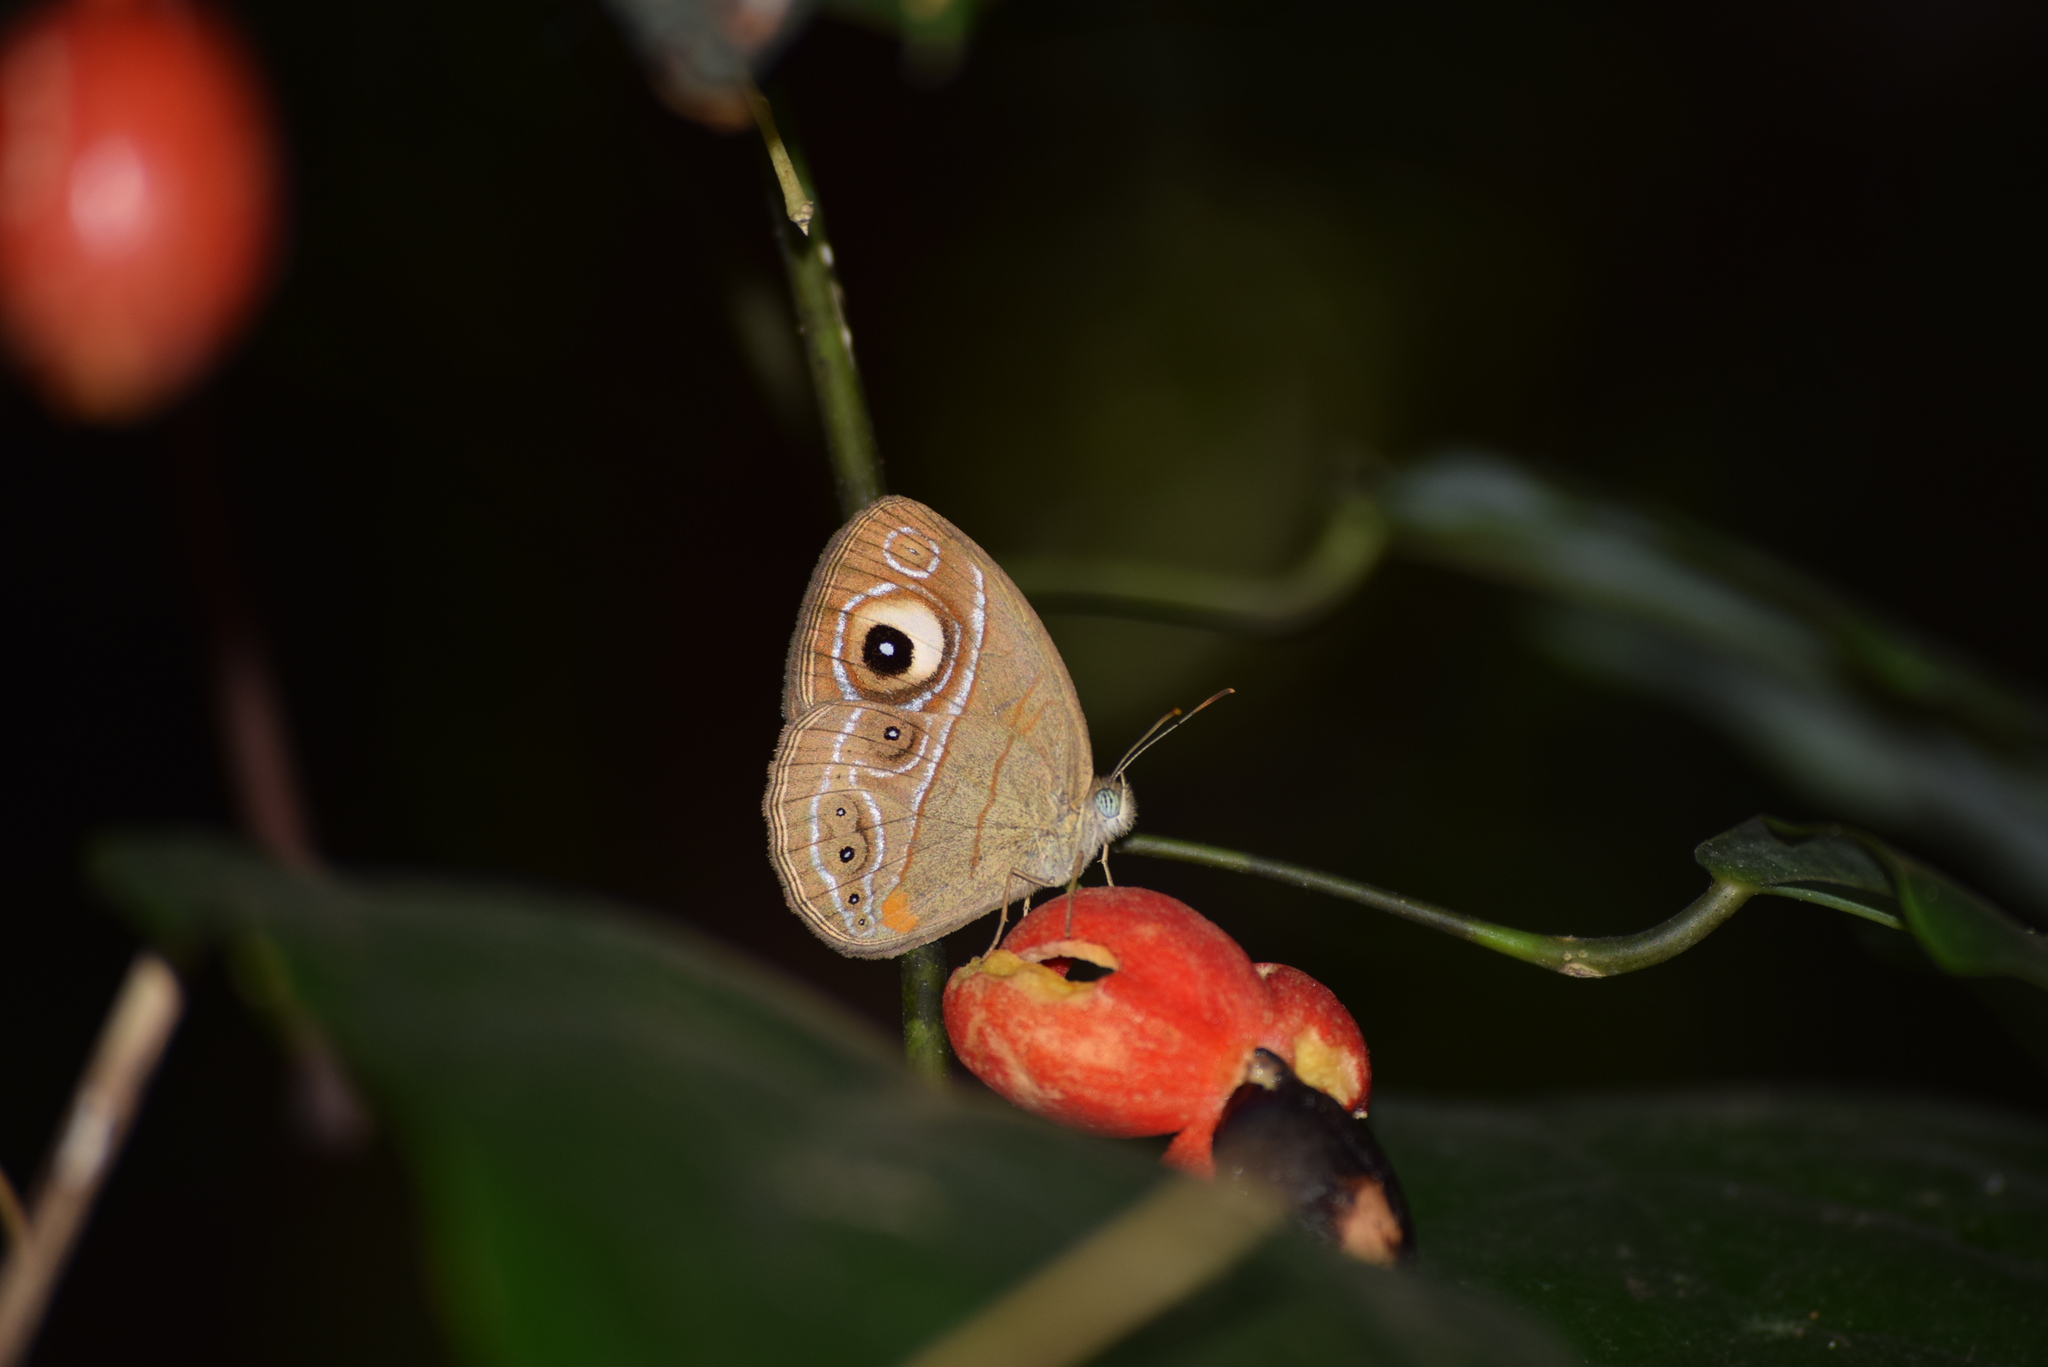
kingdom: Animalia
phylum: Arthropoda
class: Insecta
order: Lepidoptera
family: Nymphalidae
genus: Mycalesis
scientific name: Mycalesis patnia
